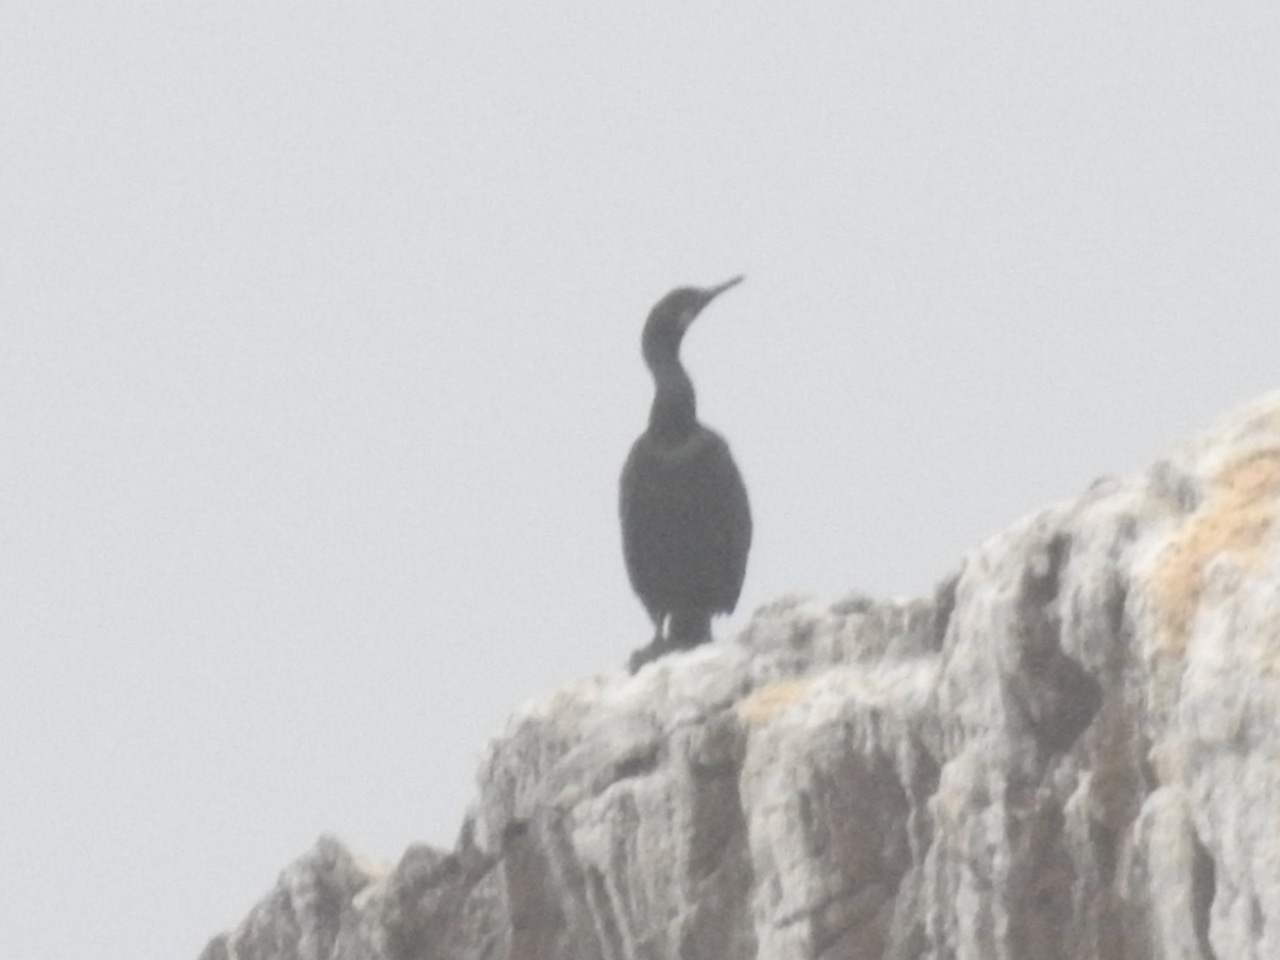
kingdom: Animalia
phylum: Chordata
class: Aves
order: Suliformes
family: Phalacrocoracidae
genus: Urile
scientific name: Urile penicillatus
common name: Brandt's cormorant
